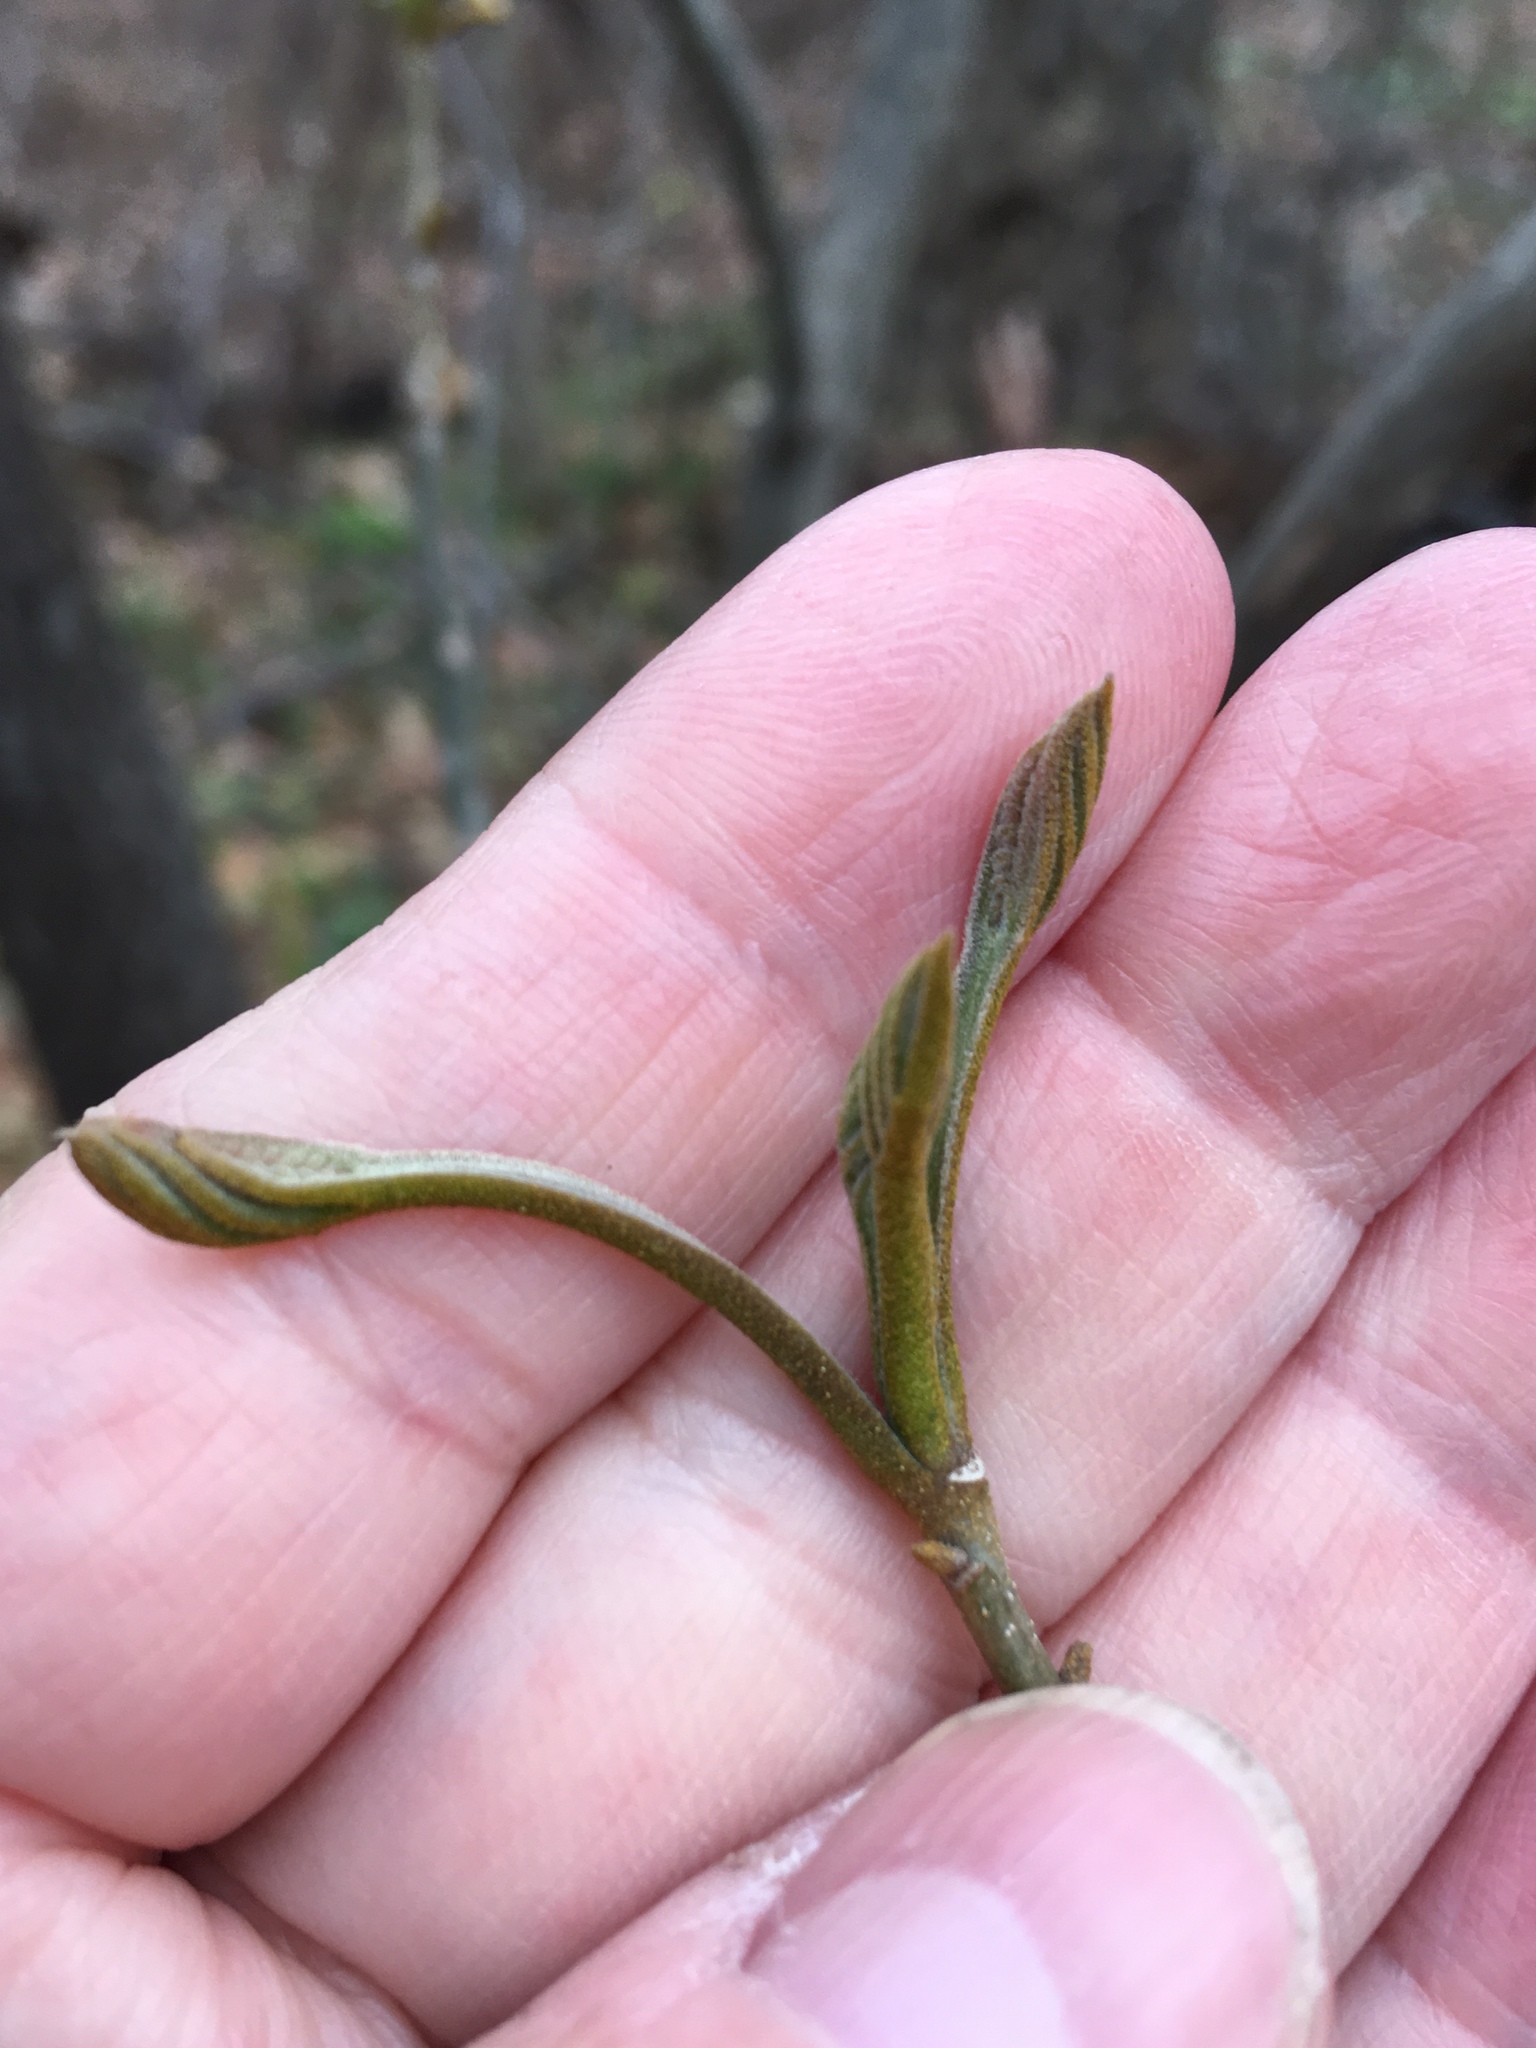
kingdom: Plantae
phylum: Tracheophyta
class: Magnoliopsida
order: Fagales
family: Juglandaceae
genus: Carya
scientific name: Carya cordiformis
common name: Bitternut hickory
